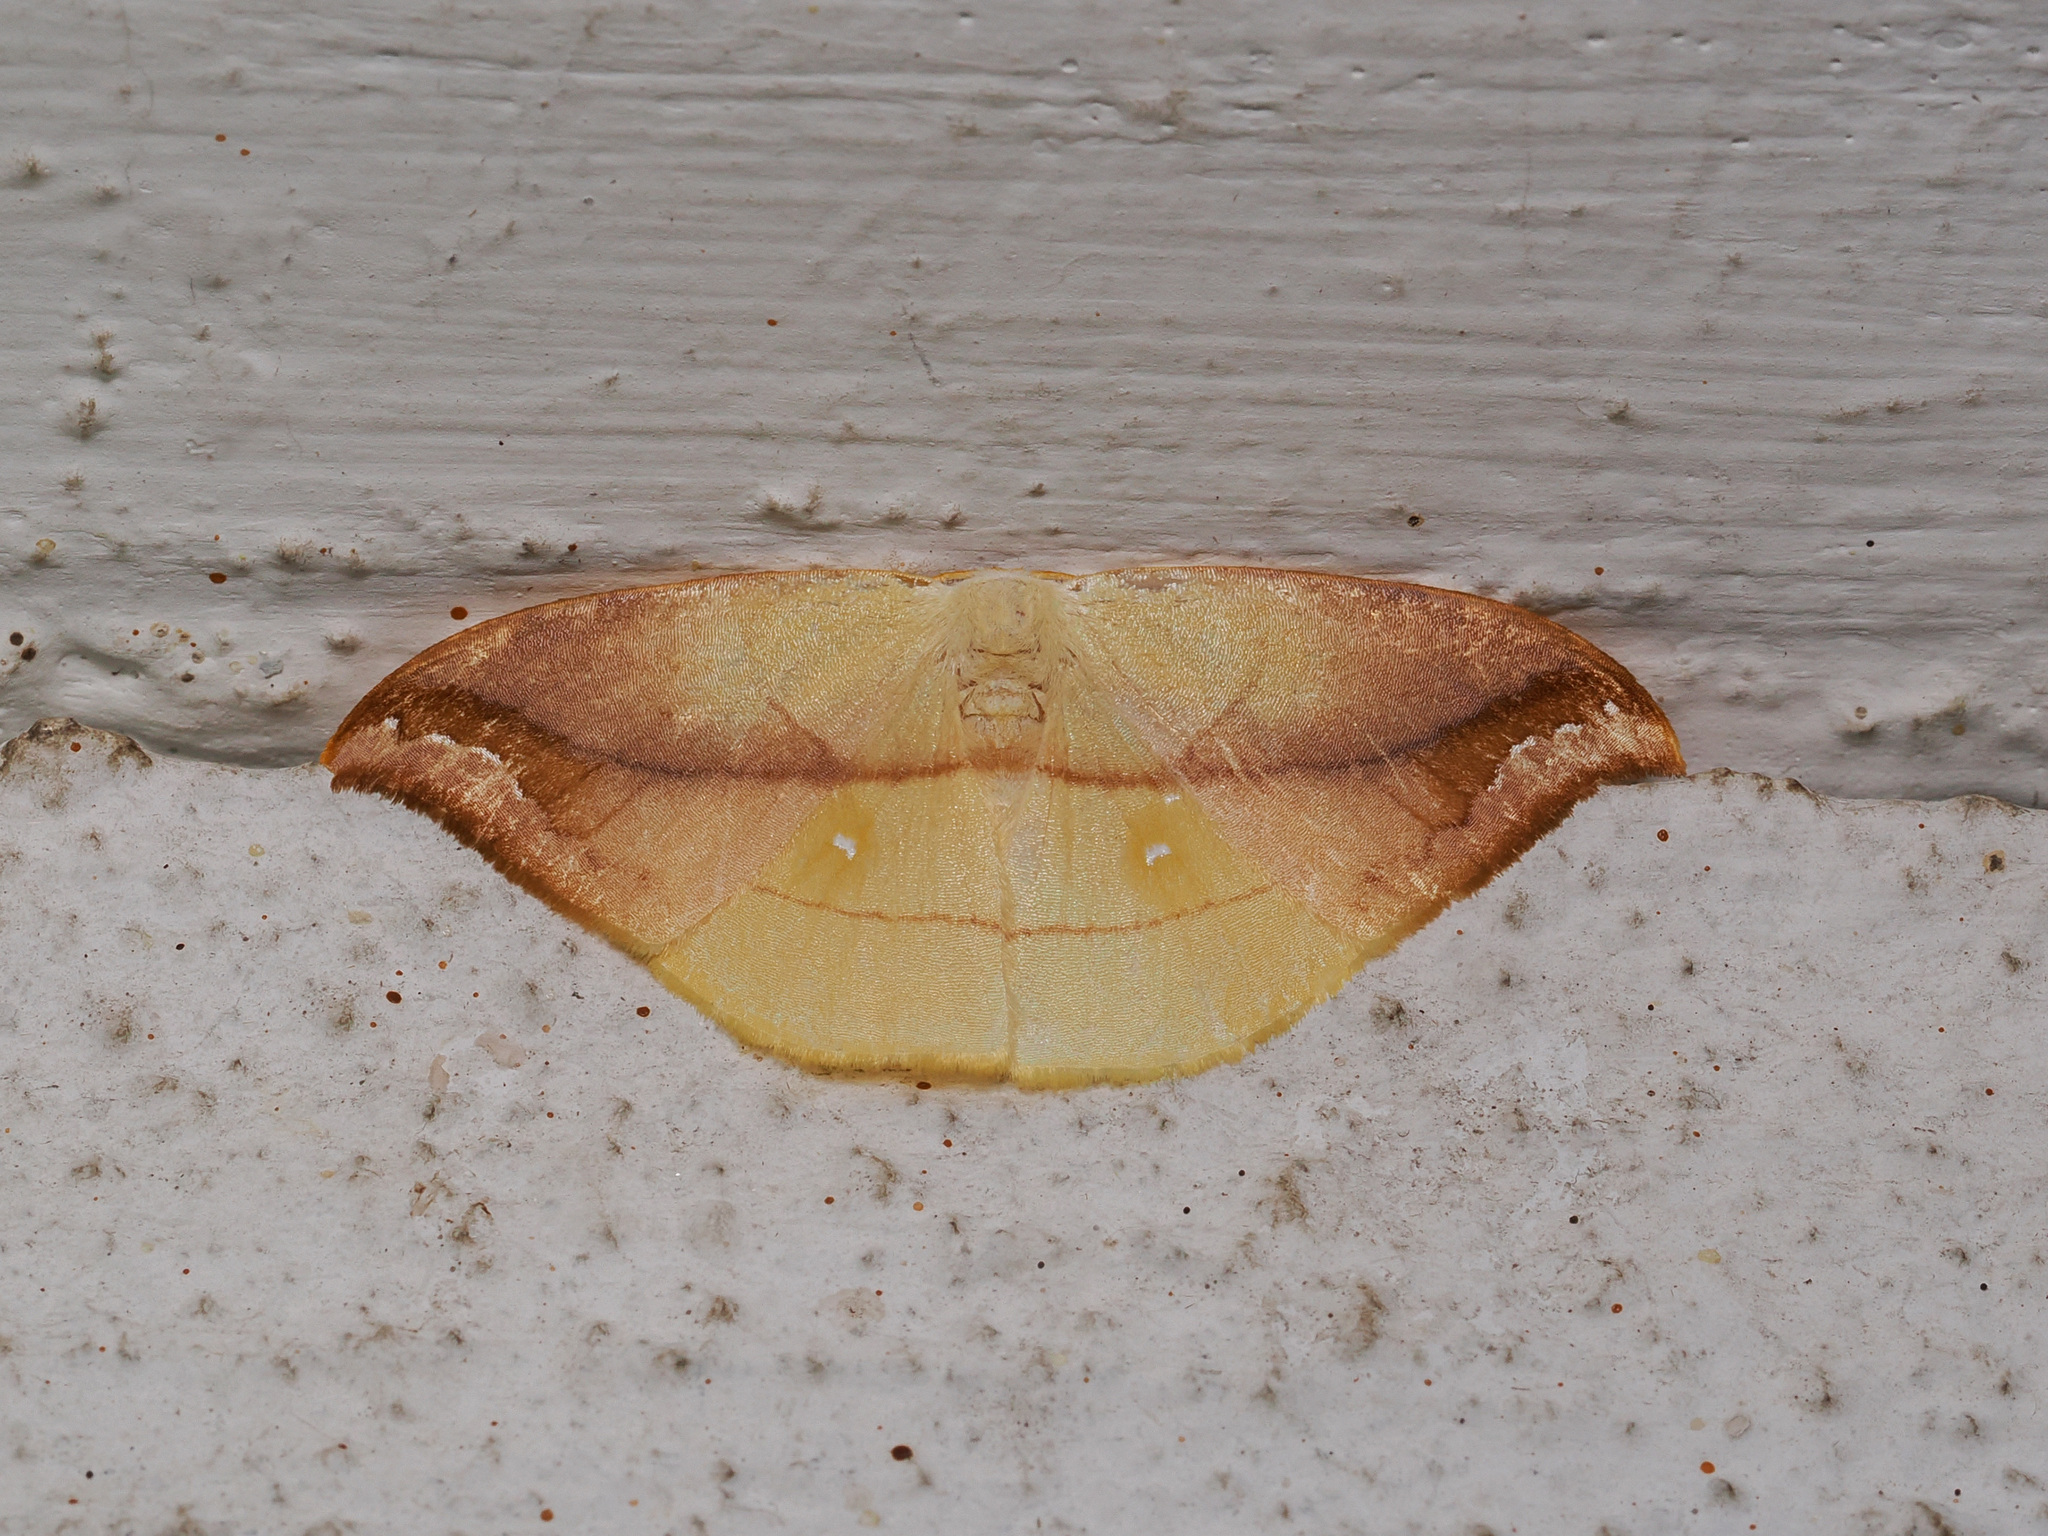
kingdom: Animalia
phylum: Arthropoda
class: Insecta
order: Lepidoptera
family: Drepanidae
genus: Tridrepana
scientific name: Tridrepana argentistriga
